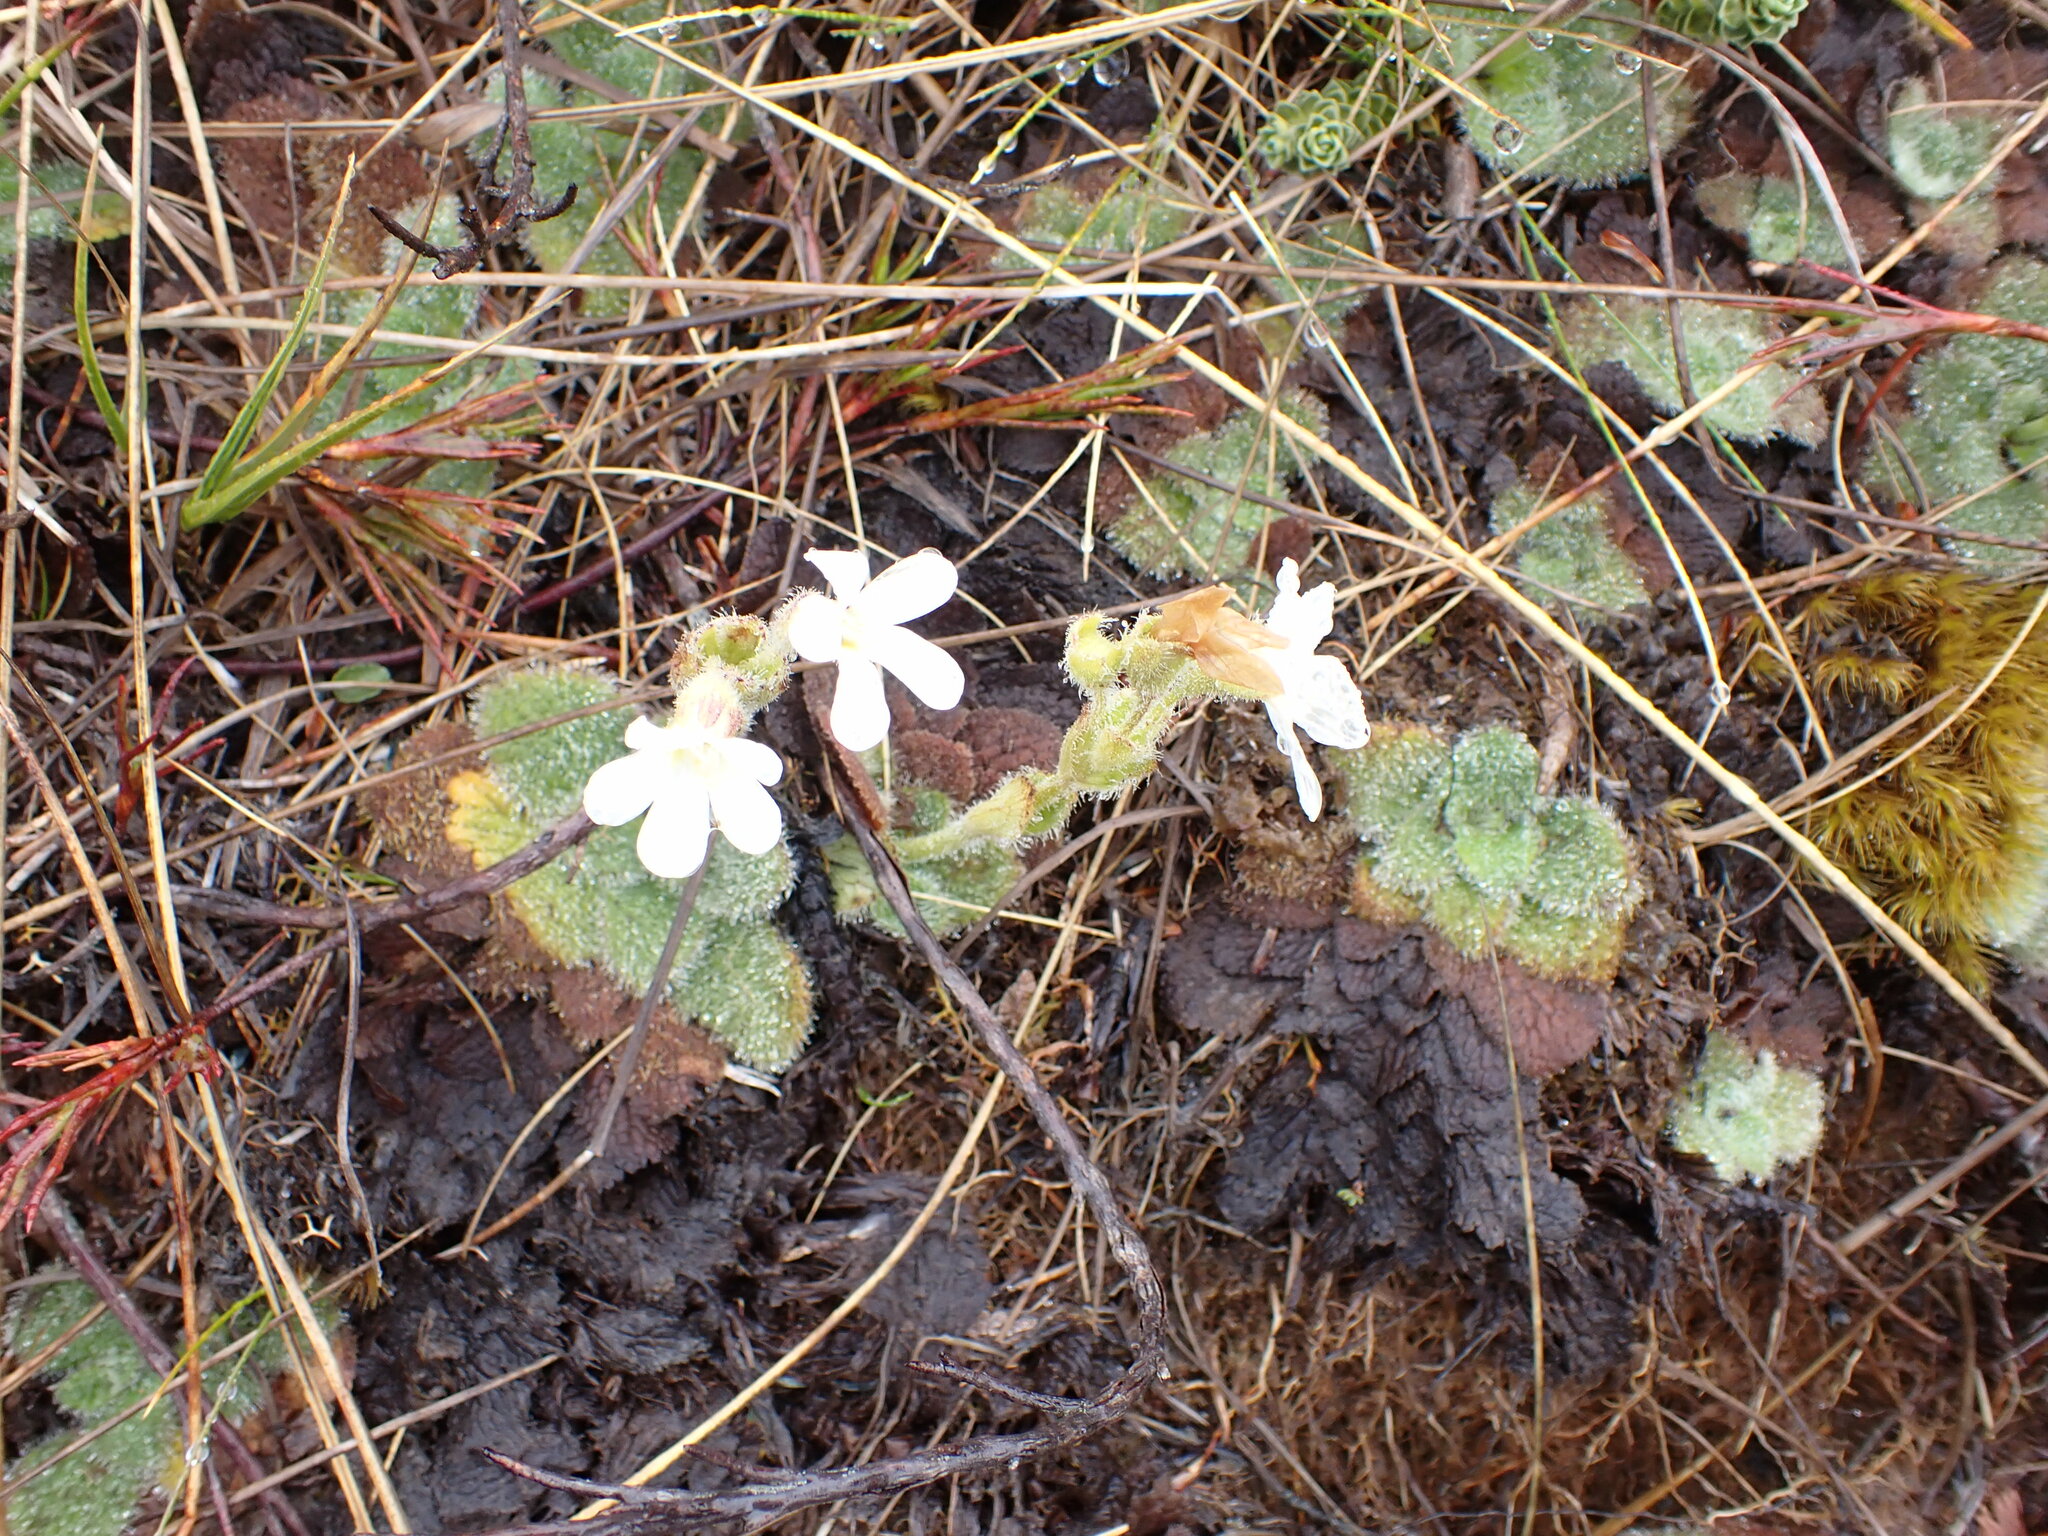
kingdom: Plantae
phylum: Tracheophyta
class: Magnoliopsida
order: Lamiales
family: Plantaginaceae
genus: Ourisia
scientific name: Ourisia sessilifolia
